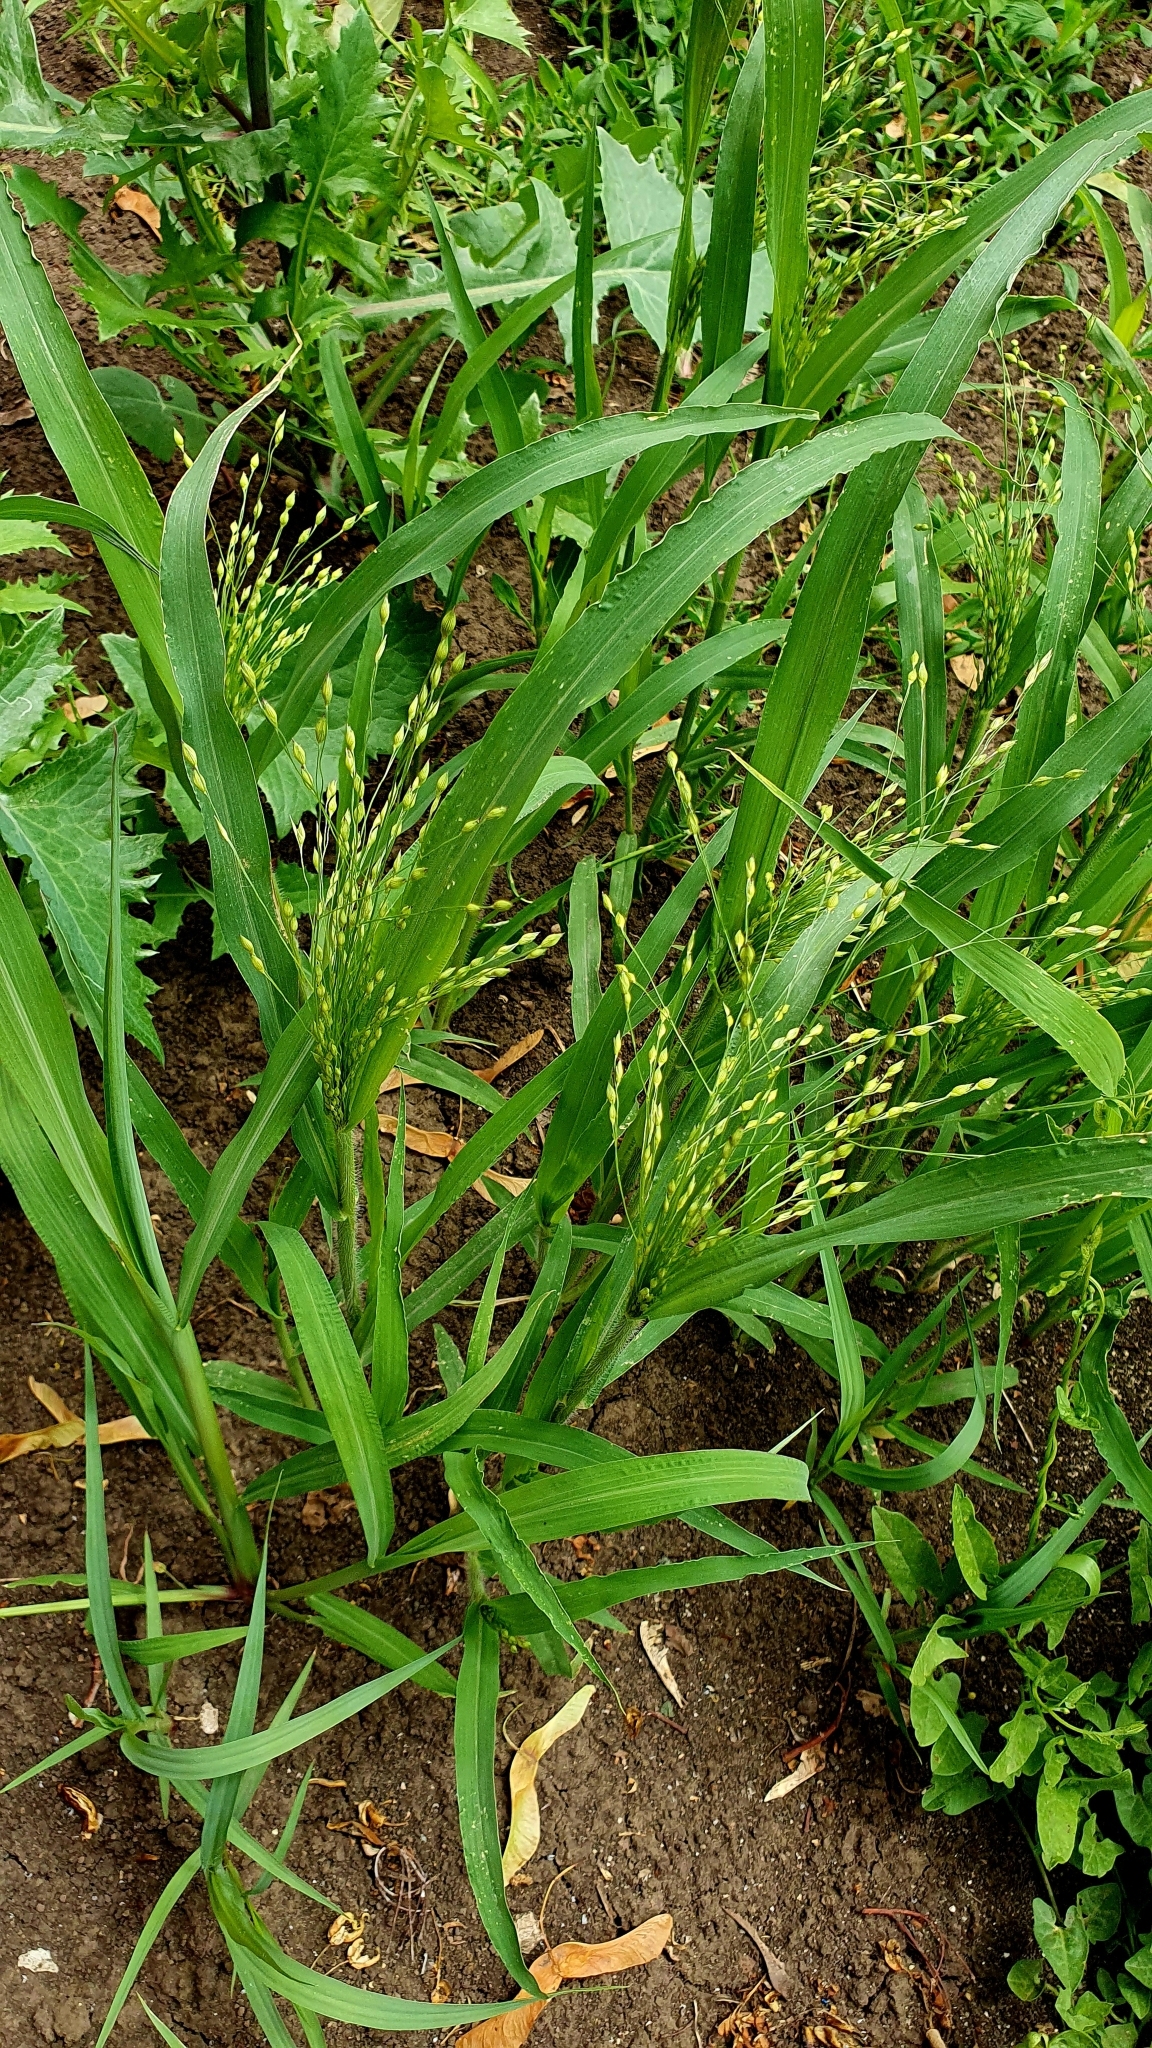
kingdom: Plantae
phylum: Tracheophyta
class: Liliopsida
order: Poales
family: Poaceae
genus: Panicum
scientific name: Panicum miliaceum
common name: Common millet
